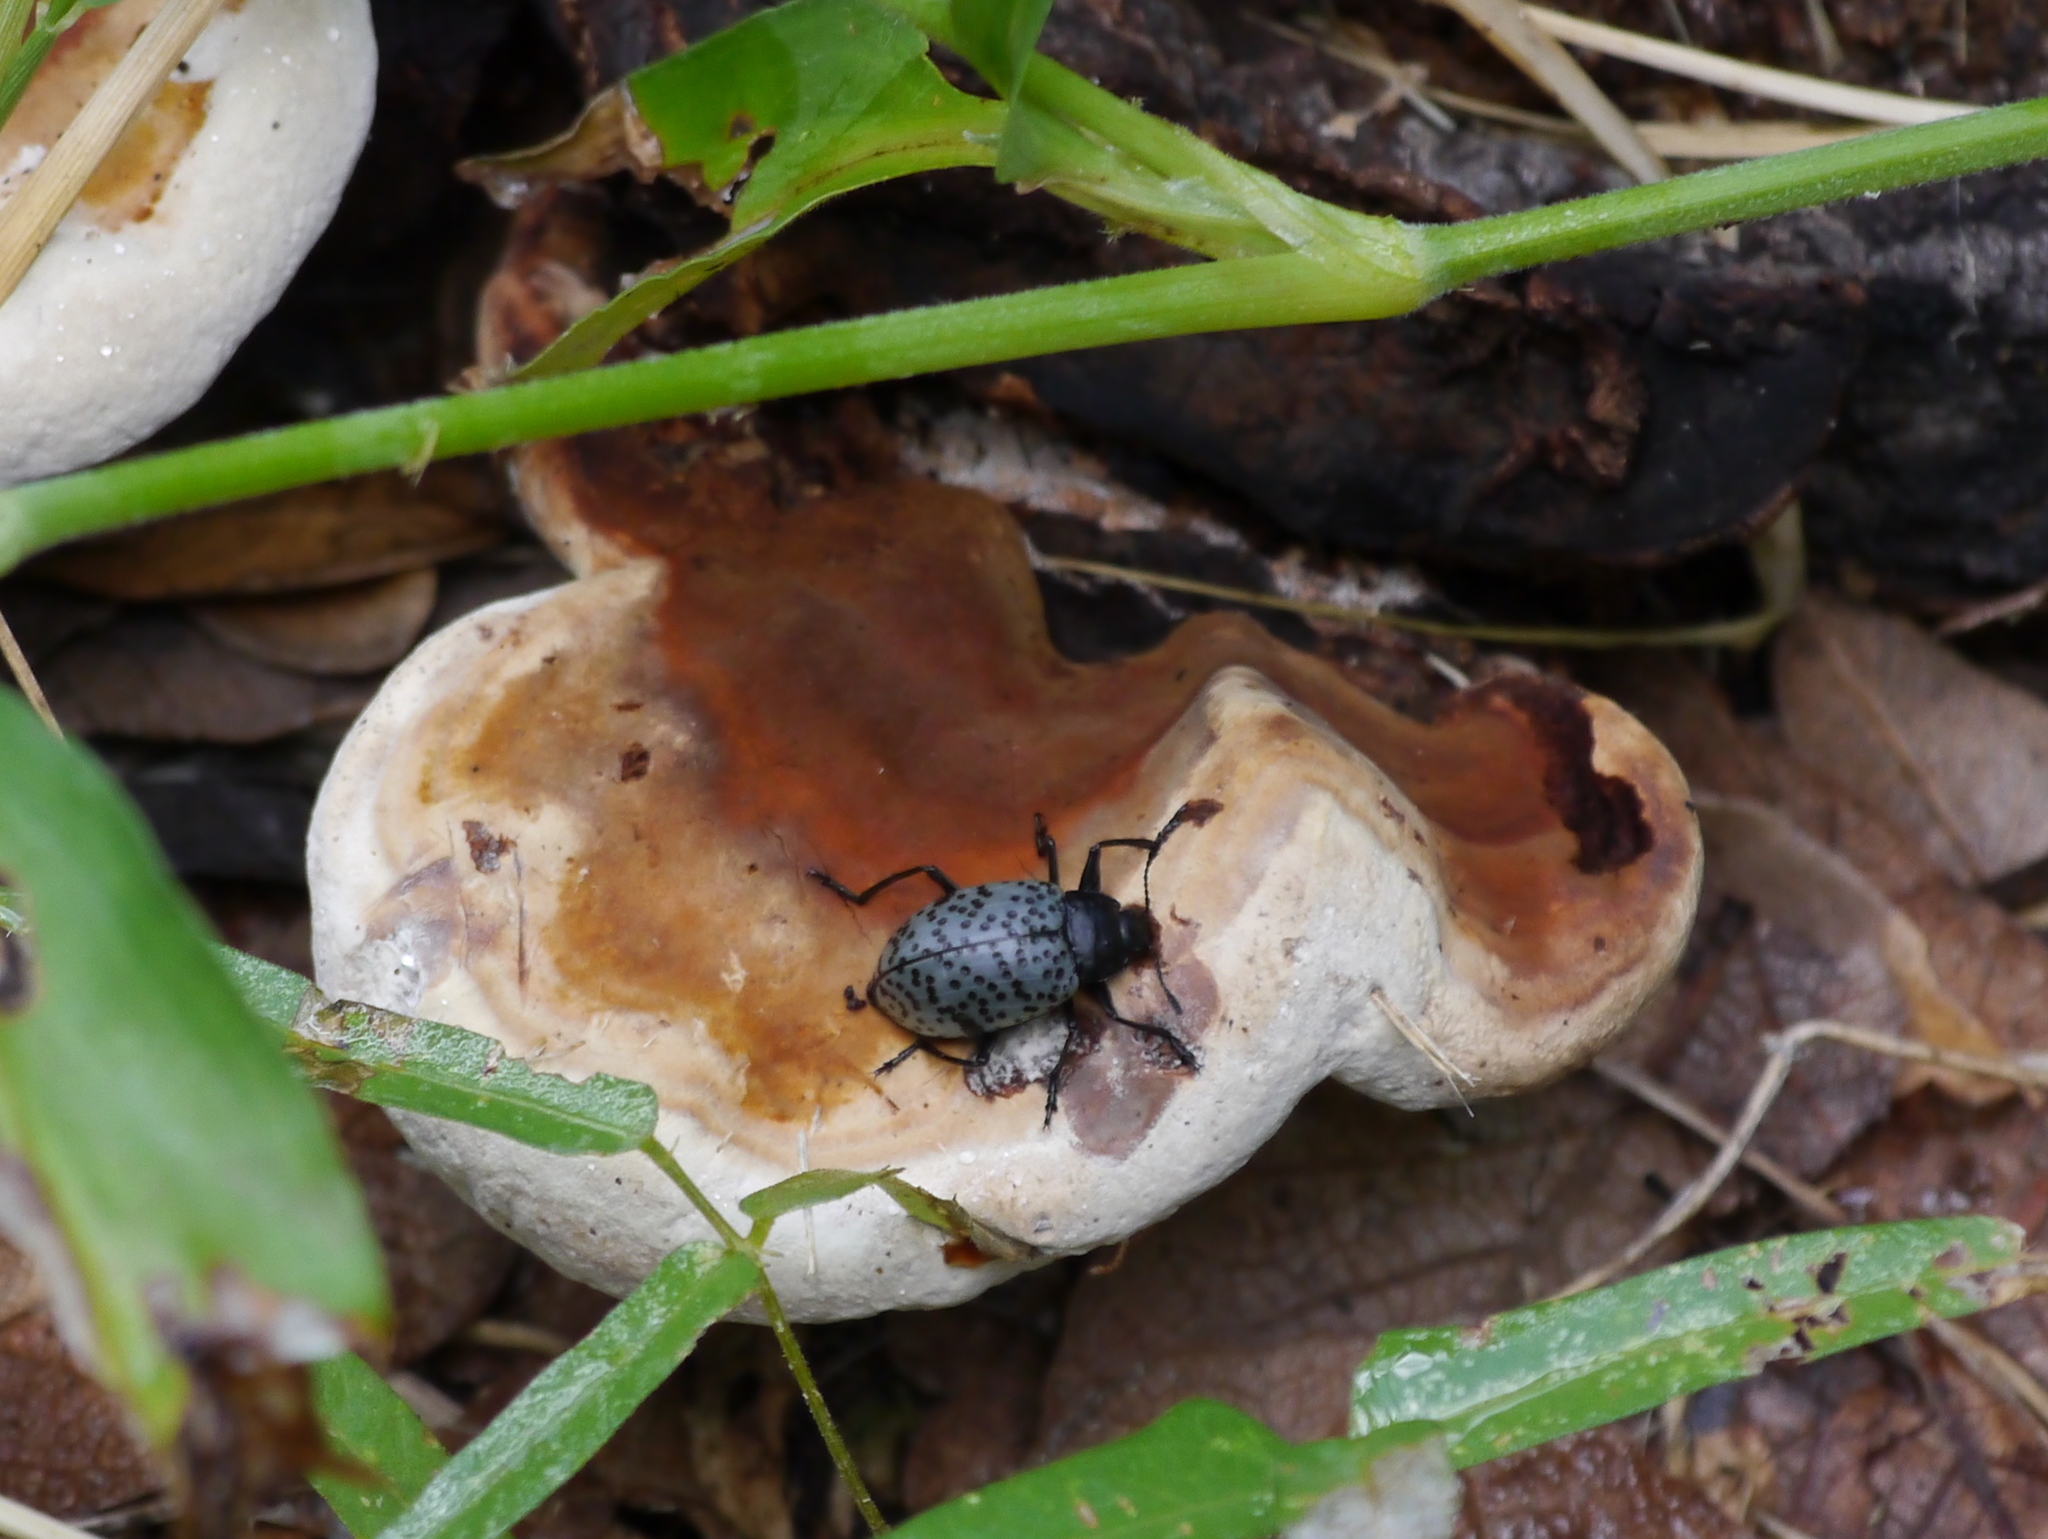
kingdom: Animalia
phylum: Arthropoda
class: Insecta
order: Coleoptera
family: Erotylidae
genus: Gibbifer
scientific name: Gibbifer californicus
